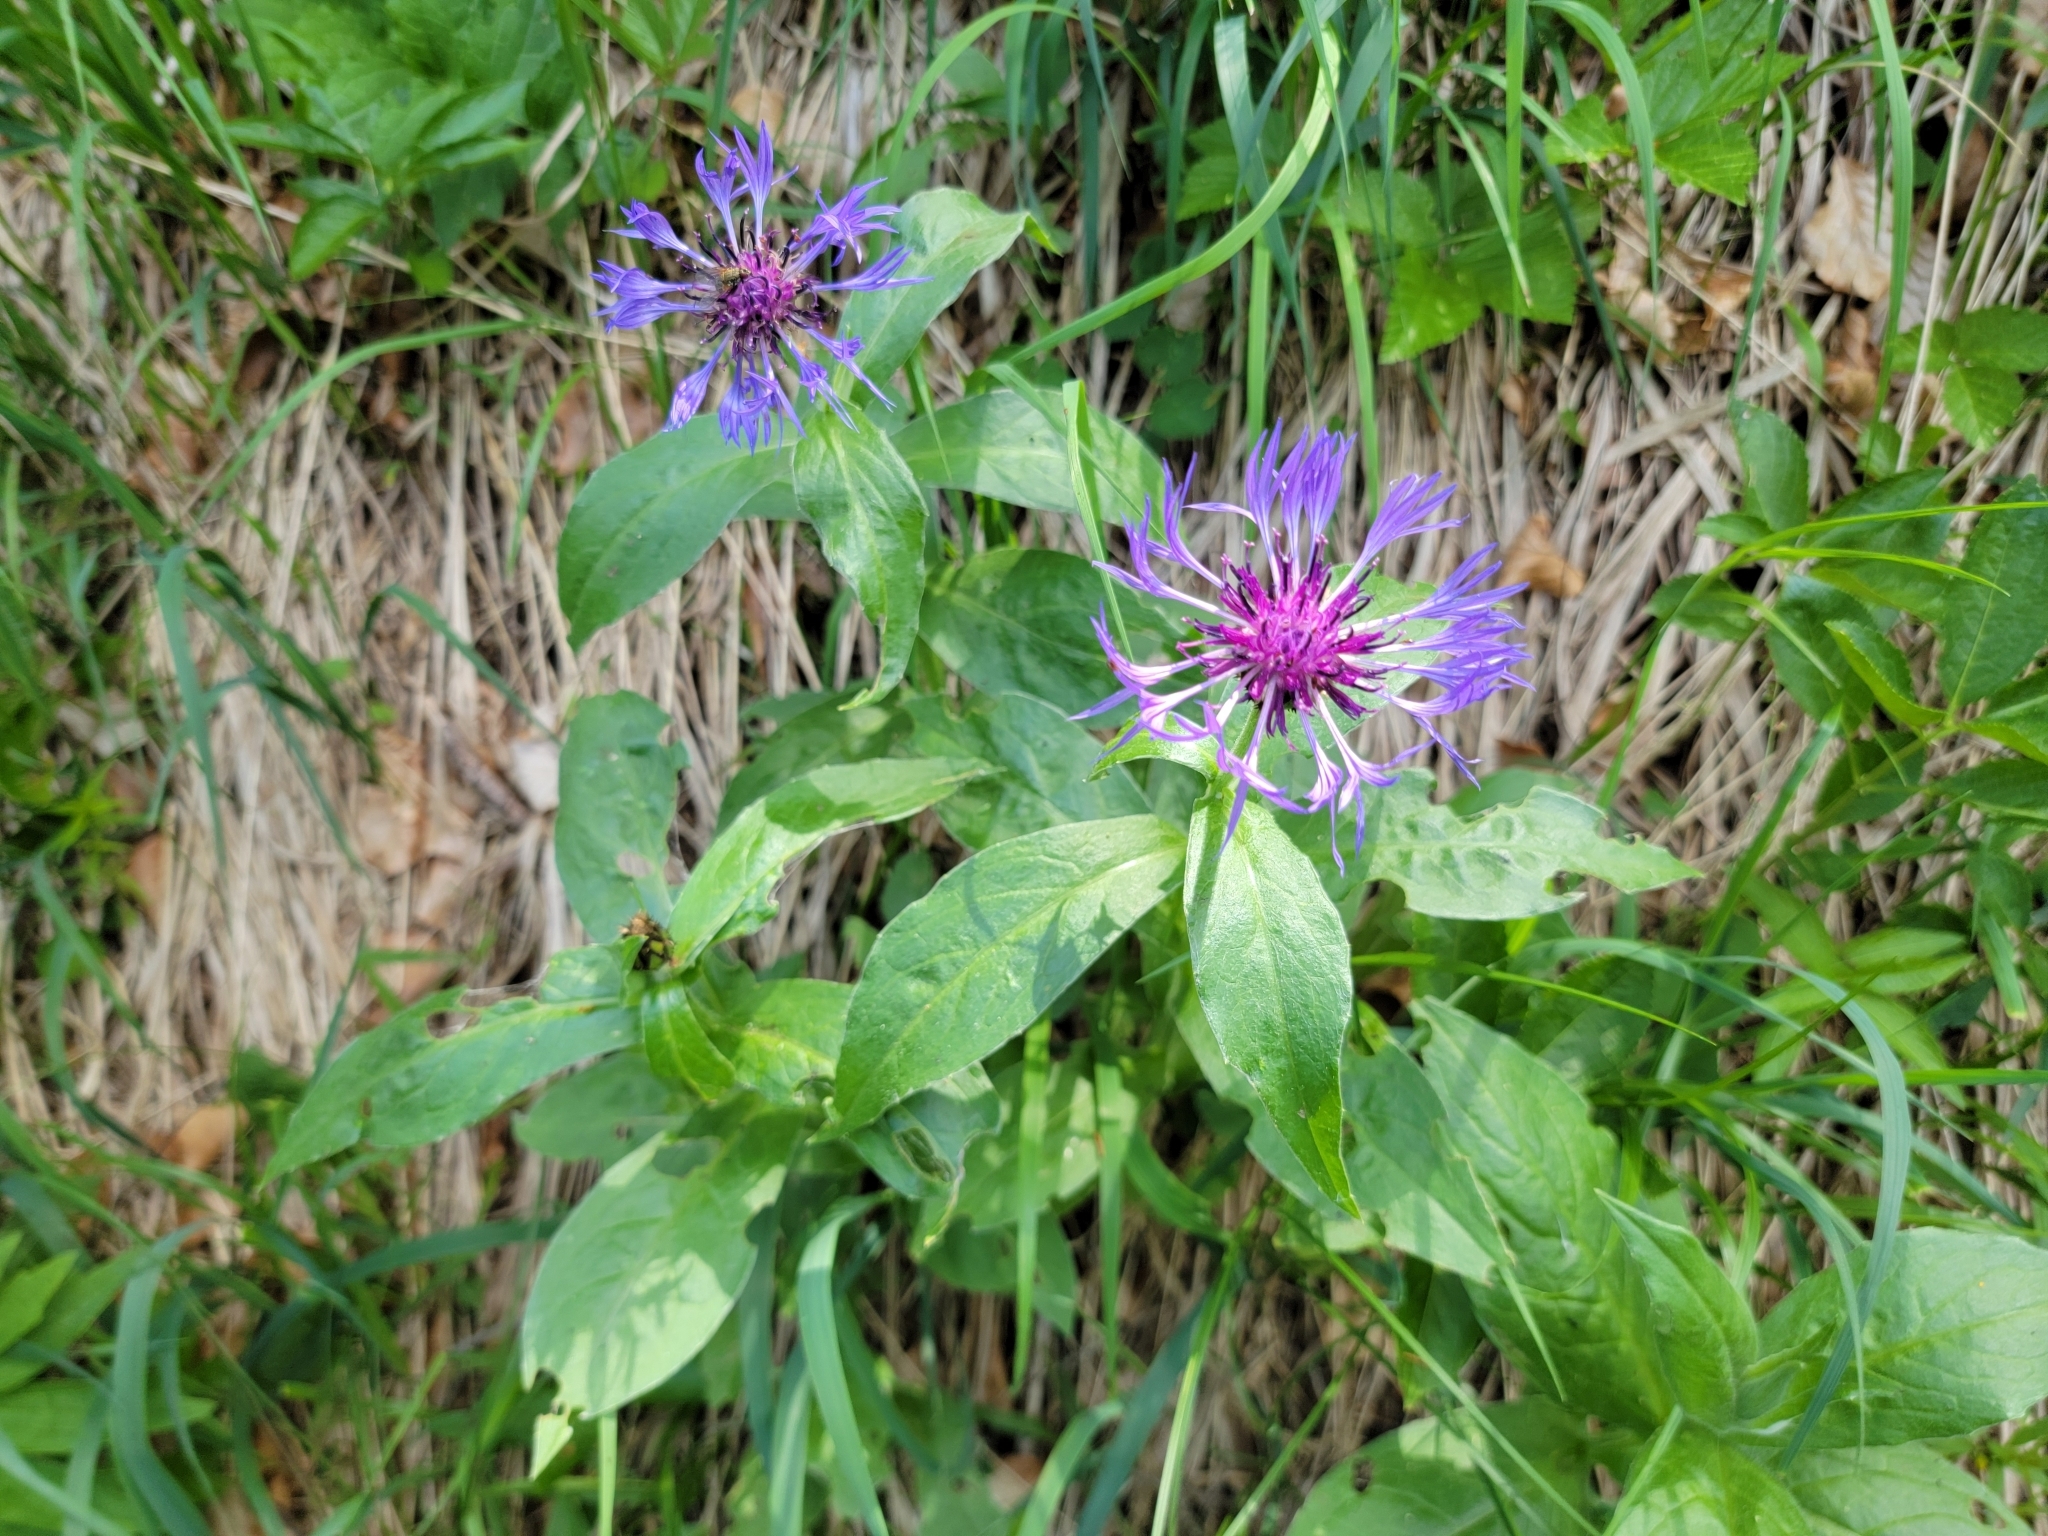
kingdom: Plantae
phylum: Tracheophyta
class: Magnoliopsida
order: Asterales
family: Asteraceae
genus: Centaurea
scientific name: Centaurea montana
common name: Perennial cornflower
